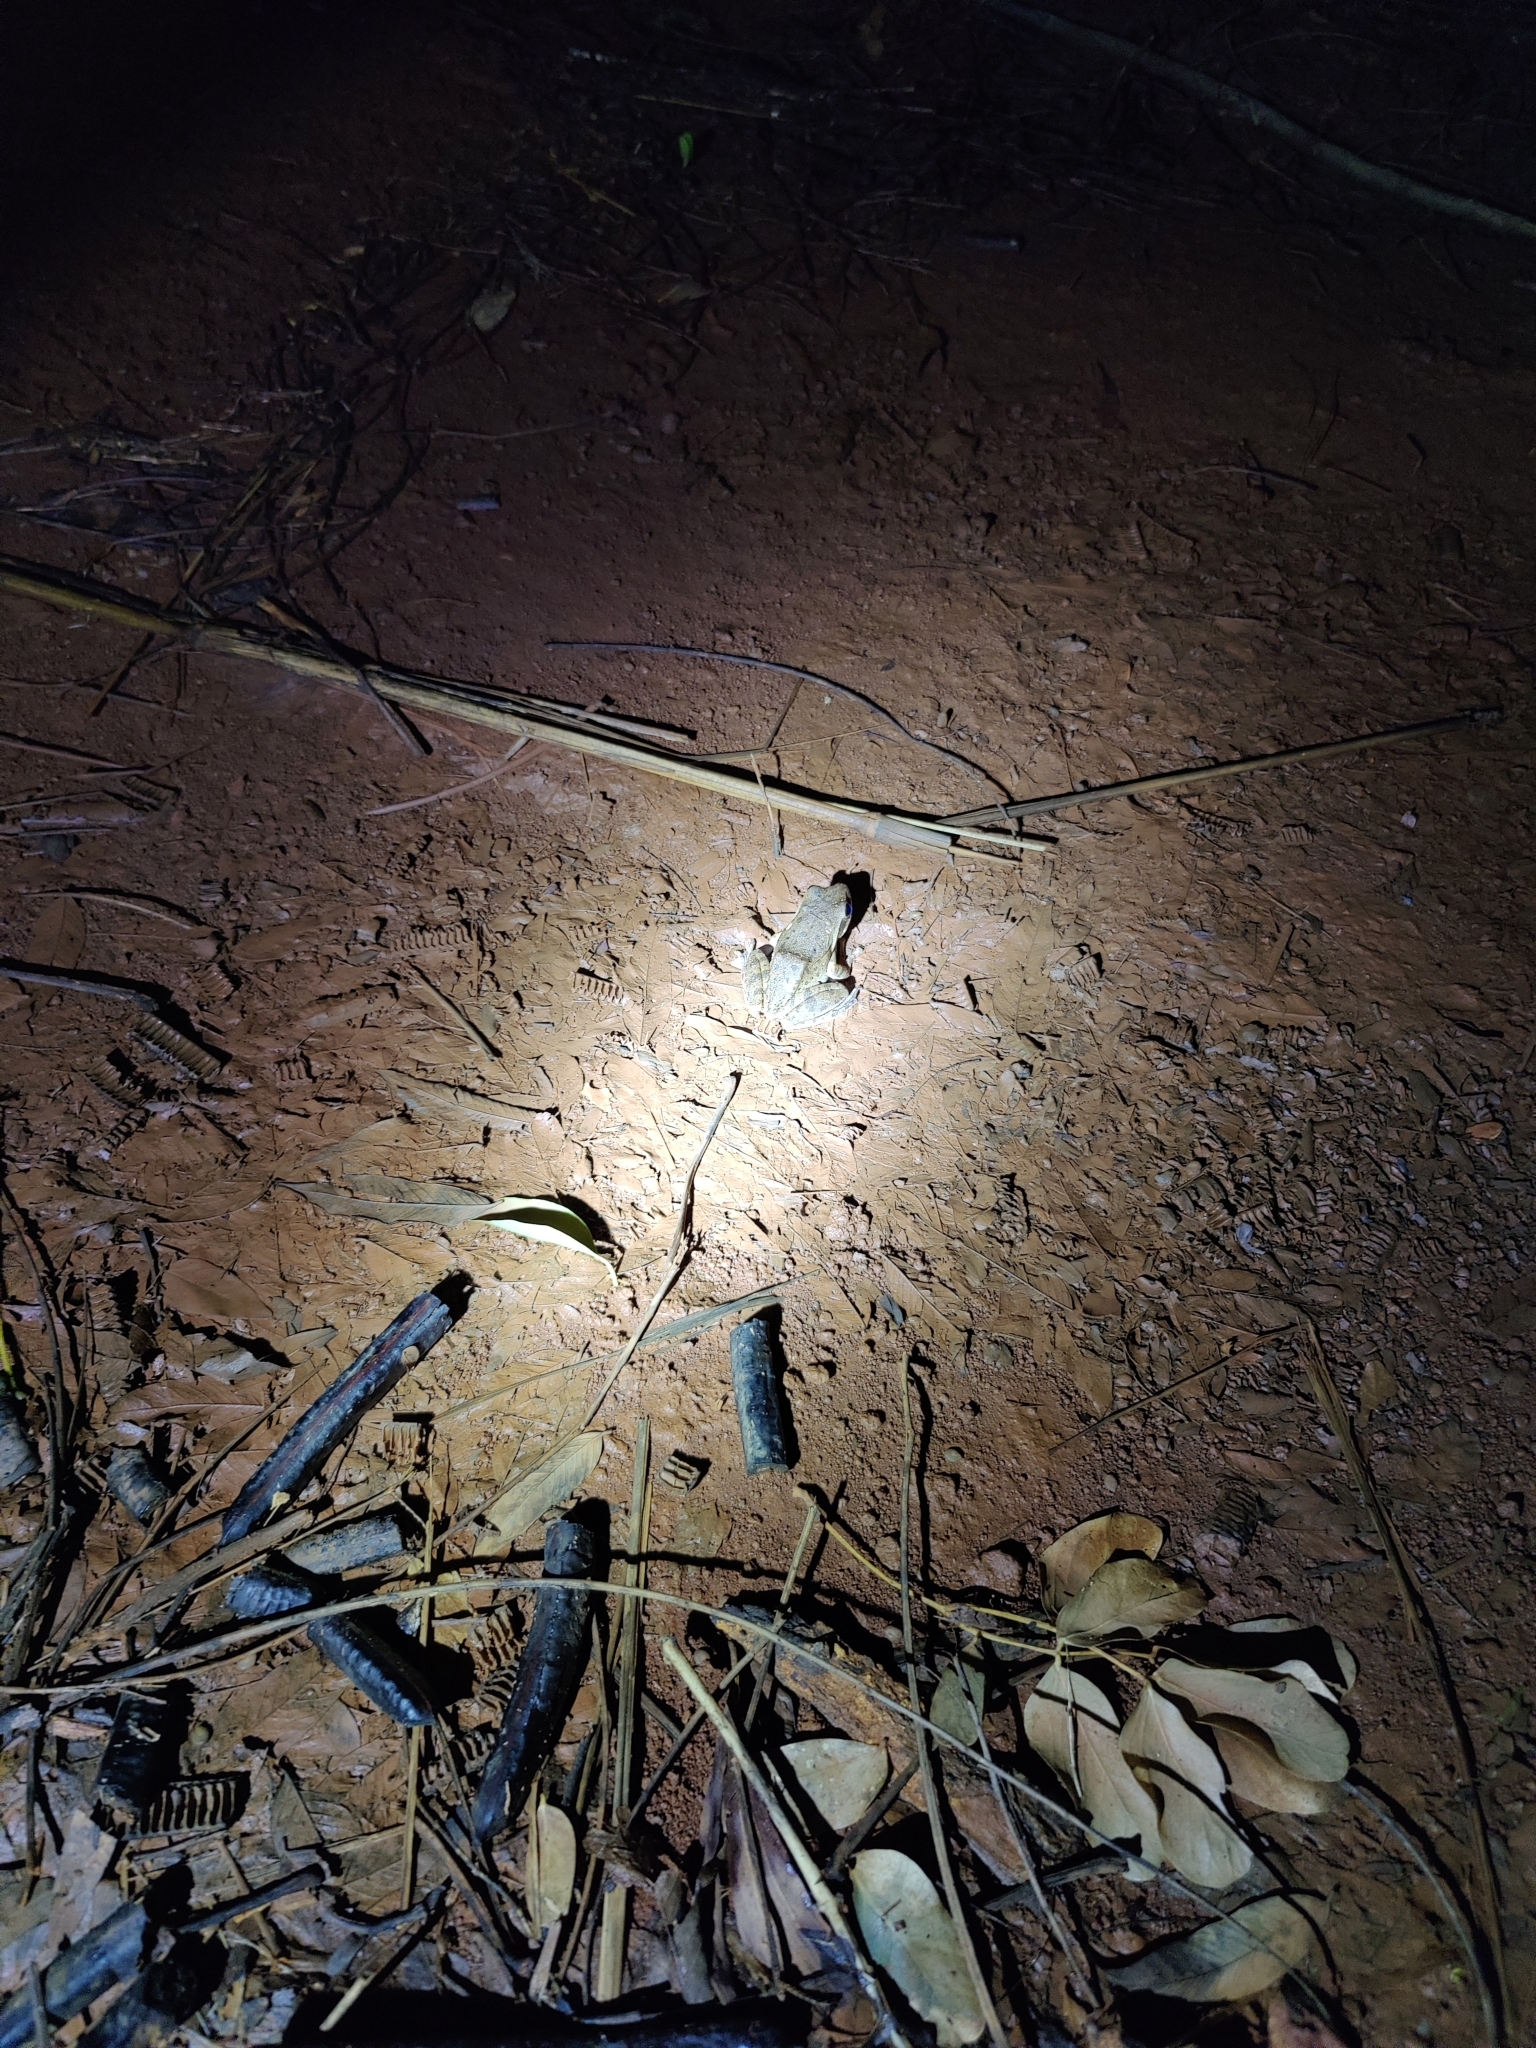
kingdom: Animalia
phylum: Chordata
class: Amphibia
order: Anura
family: Rhacophoridae
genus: Polypedates
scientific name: Polypedates maculatus
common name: Himalayan tree frog
